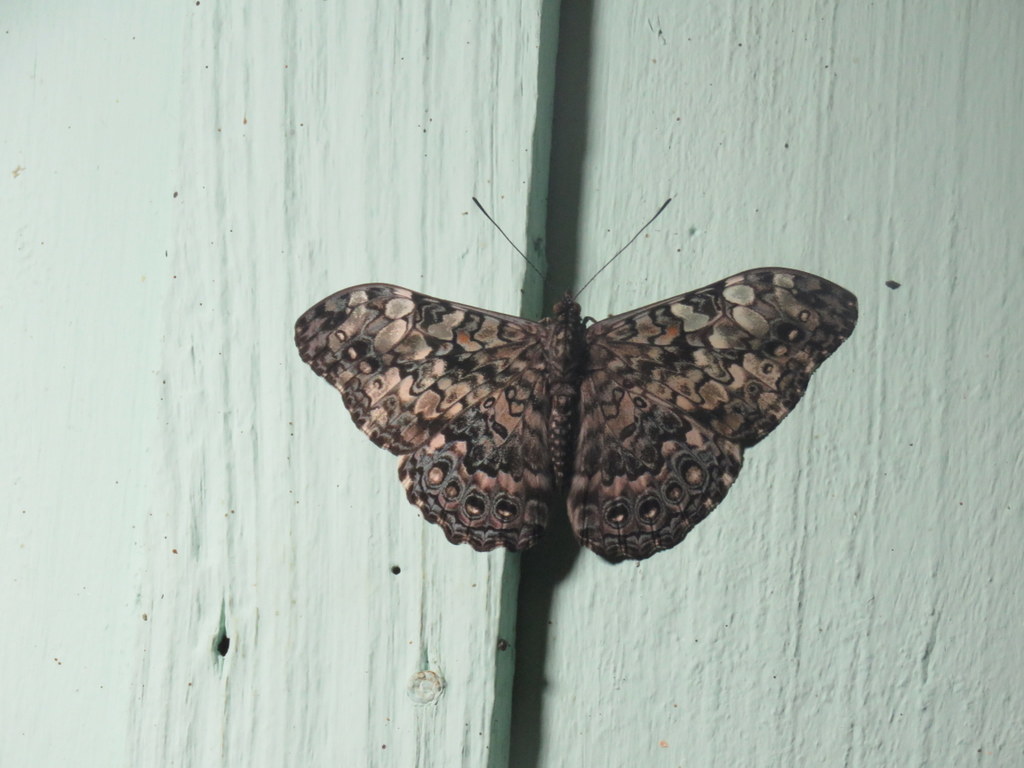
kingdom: Animalia
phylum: Arthropoda
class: Insecta
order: Lepidoptera
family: Nymphalidae
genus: Hamadryas
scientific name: Hamadryas epinome
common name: Epinome cracker
